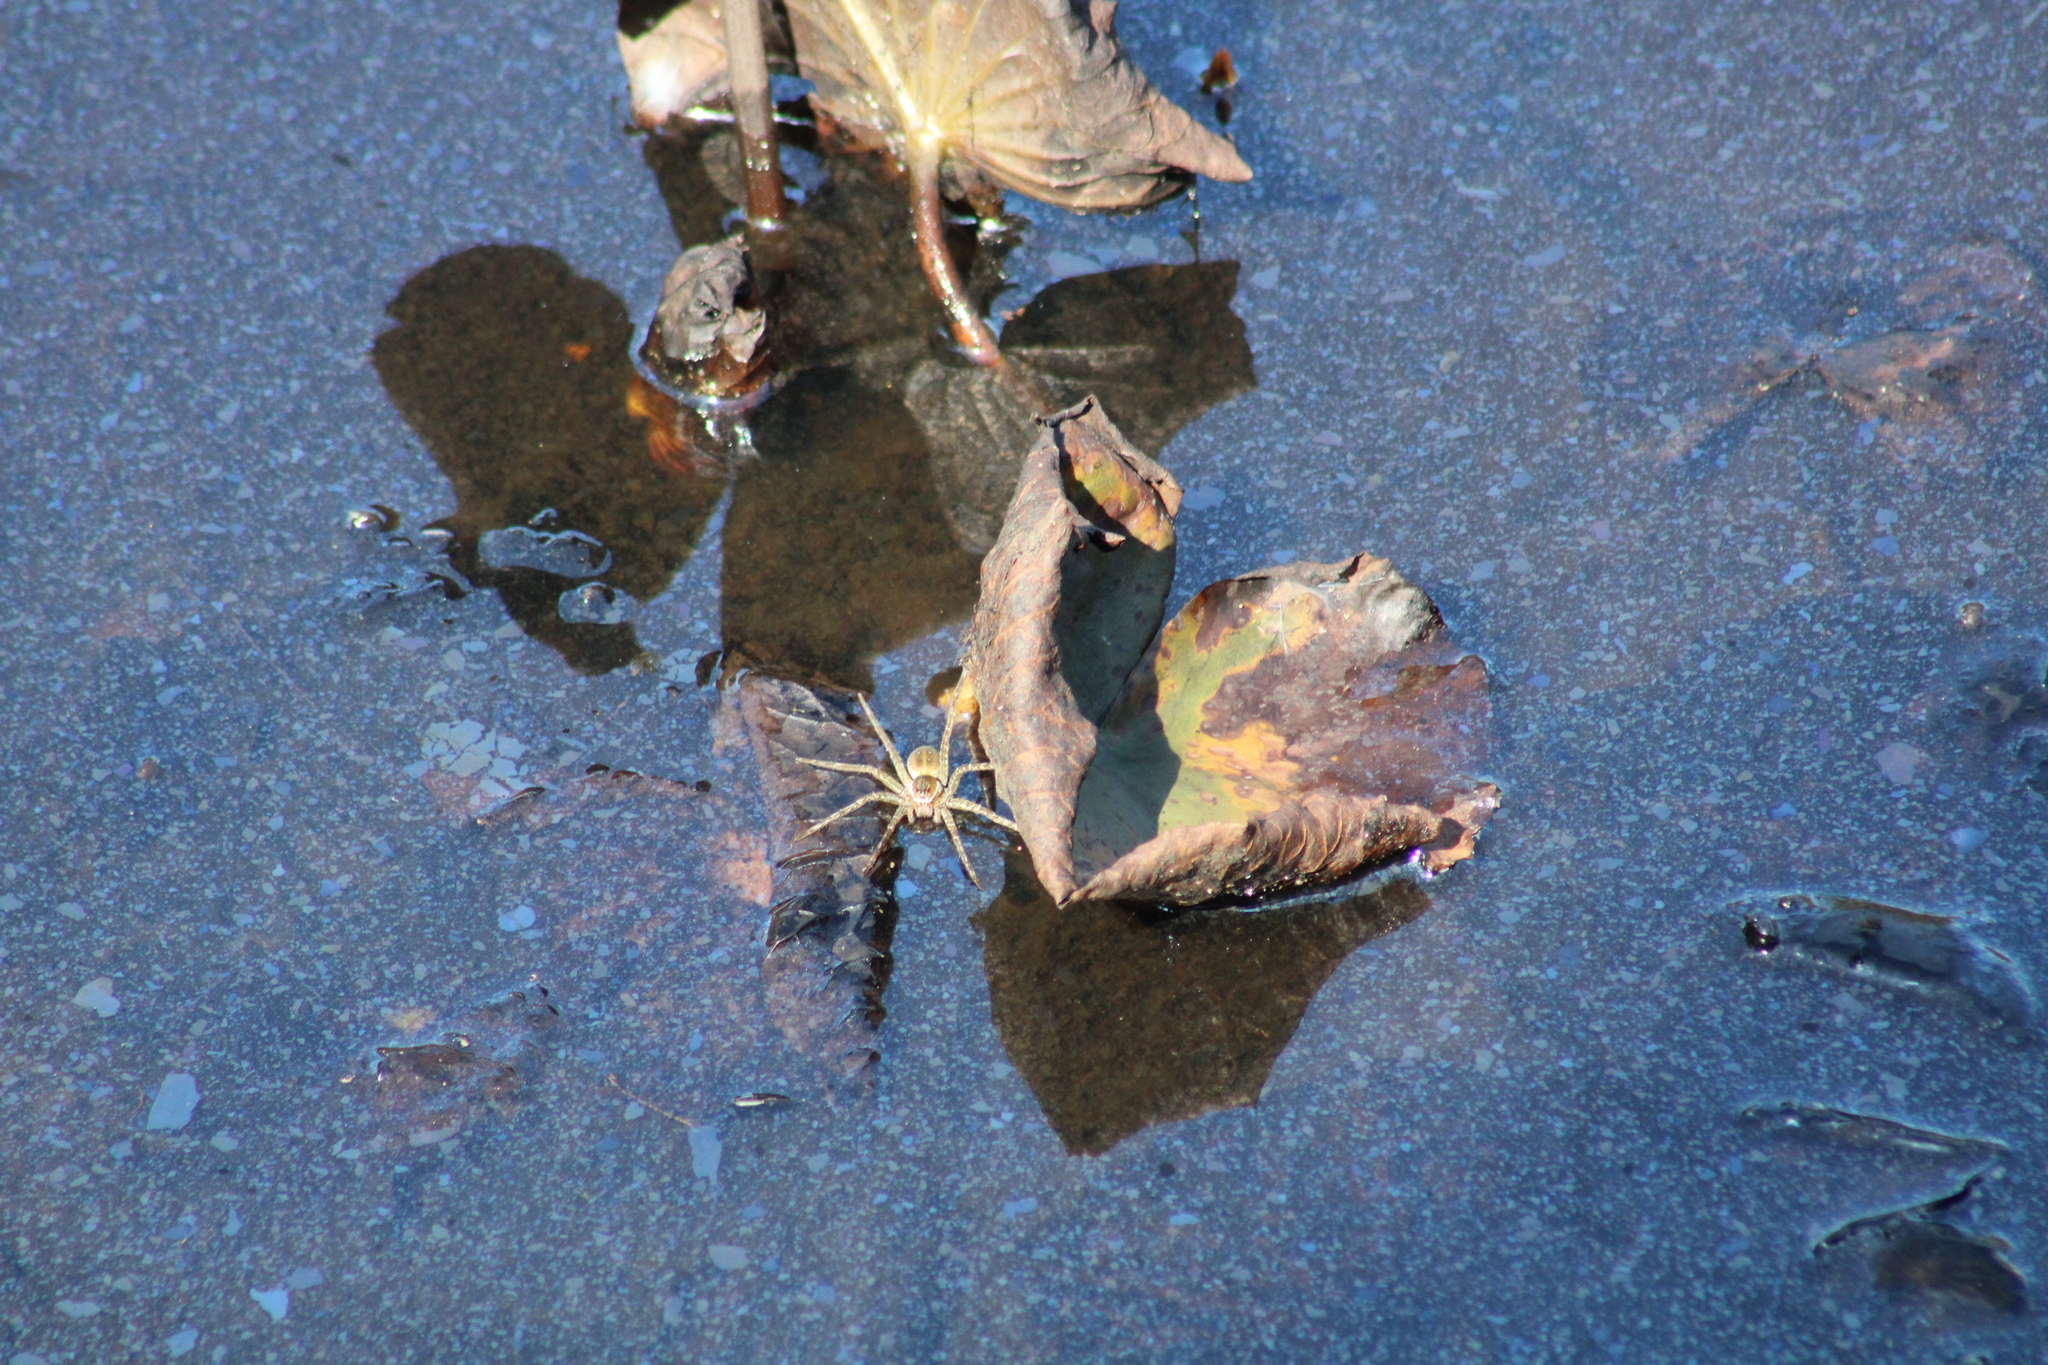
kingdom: Animalia
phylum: Arthropoda
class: Arachnida
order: Araneae
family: Pisauridae
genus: Dolomedes
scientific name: Dolomedes triton
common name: Six-spotted fishing spider
